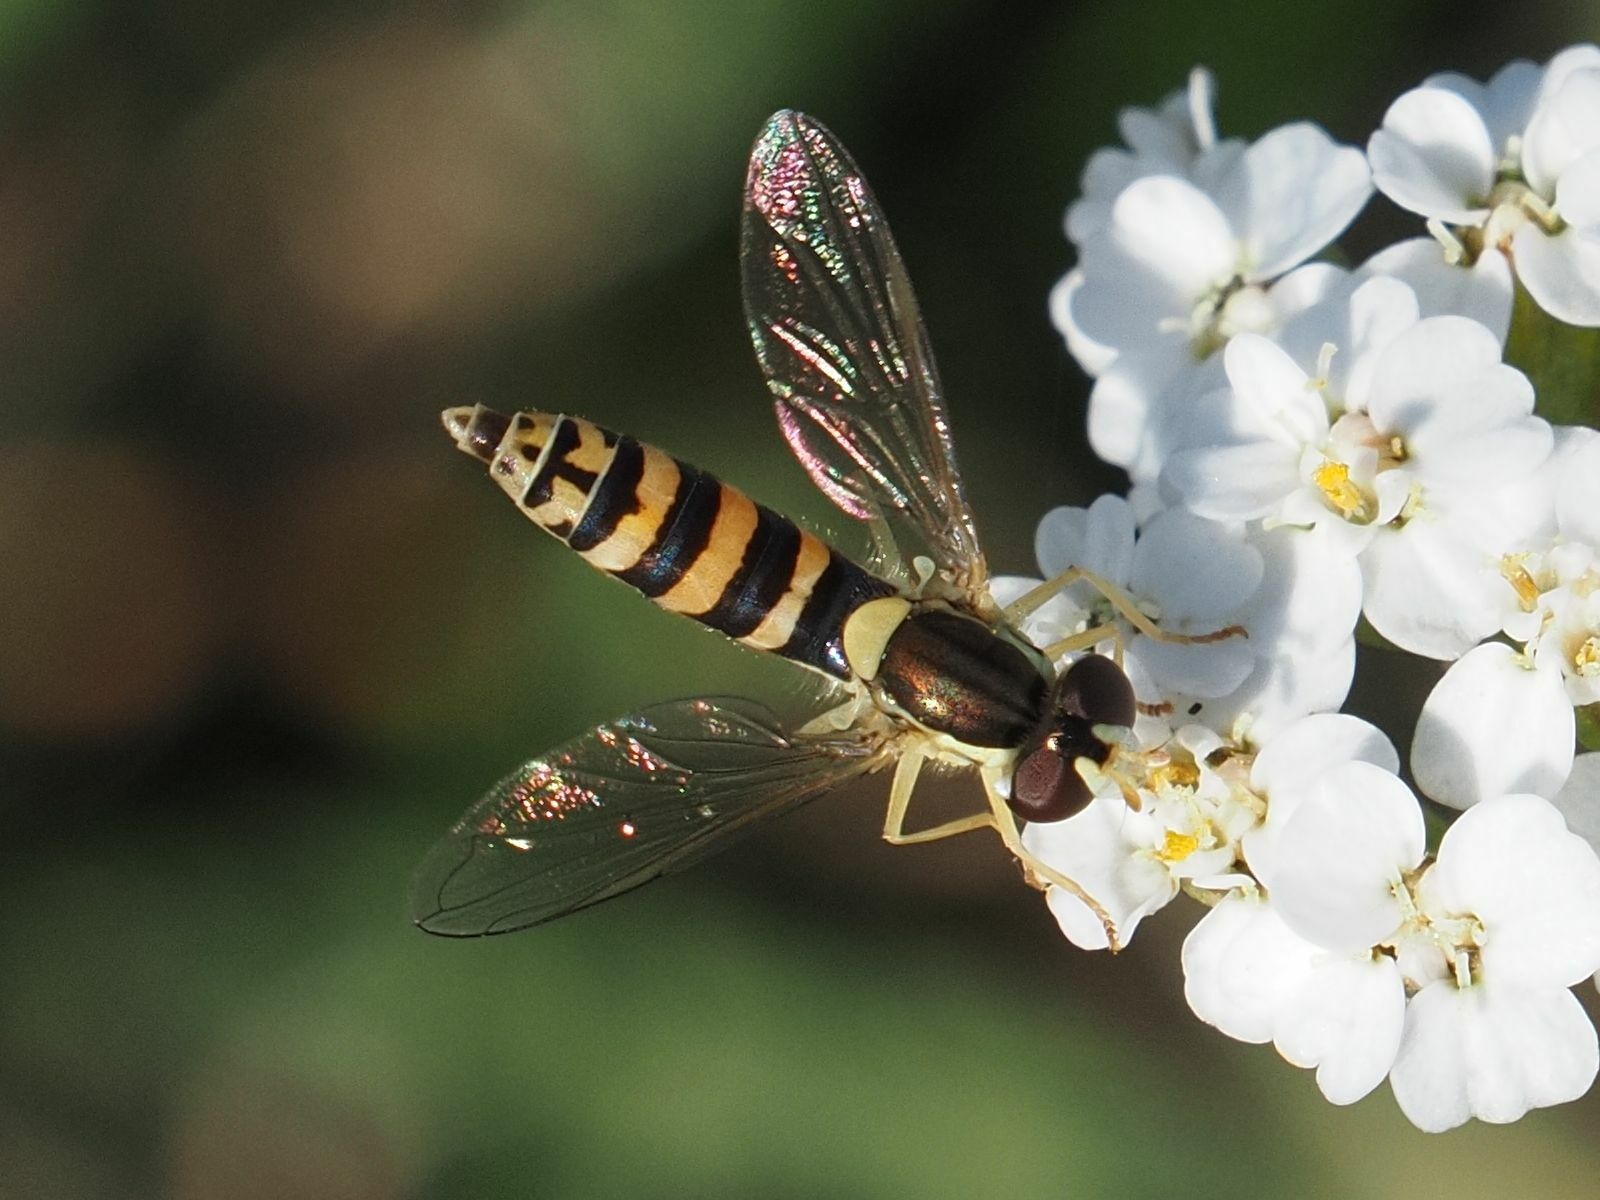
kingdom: Animalia
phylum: Arthropoda
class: Insecta
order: Diptera
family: Syrphidae
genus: Sphaerophoria
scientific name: Sphaerophoria
